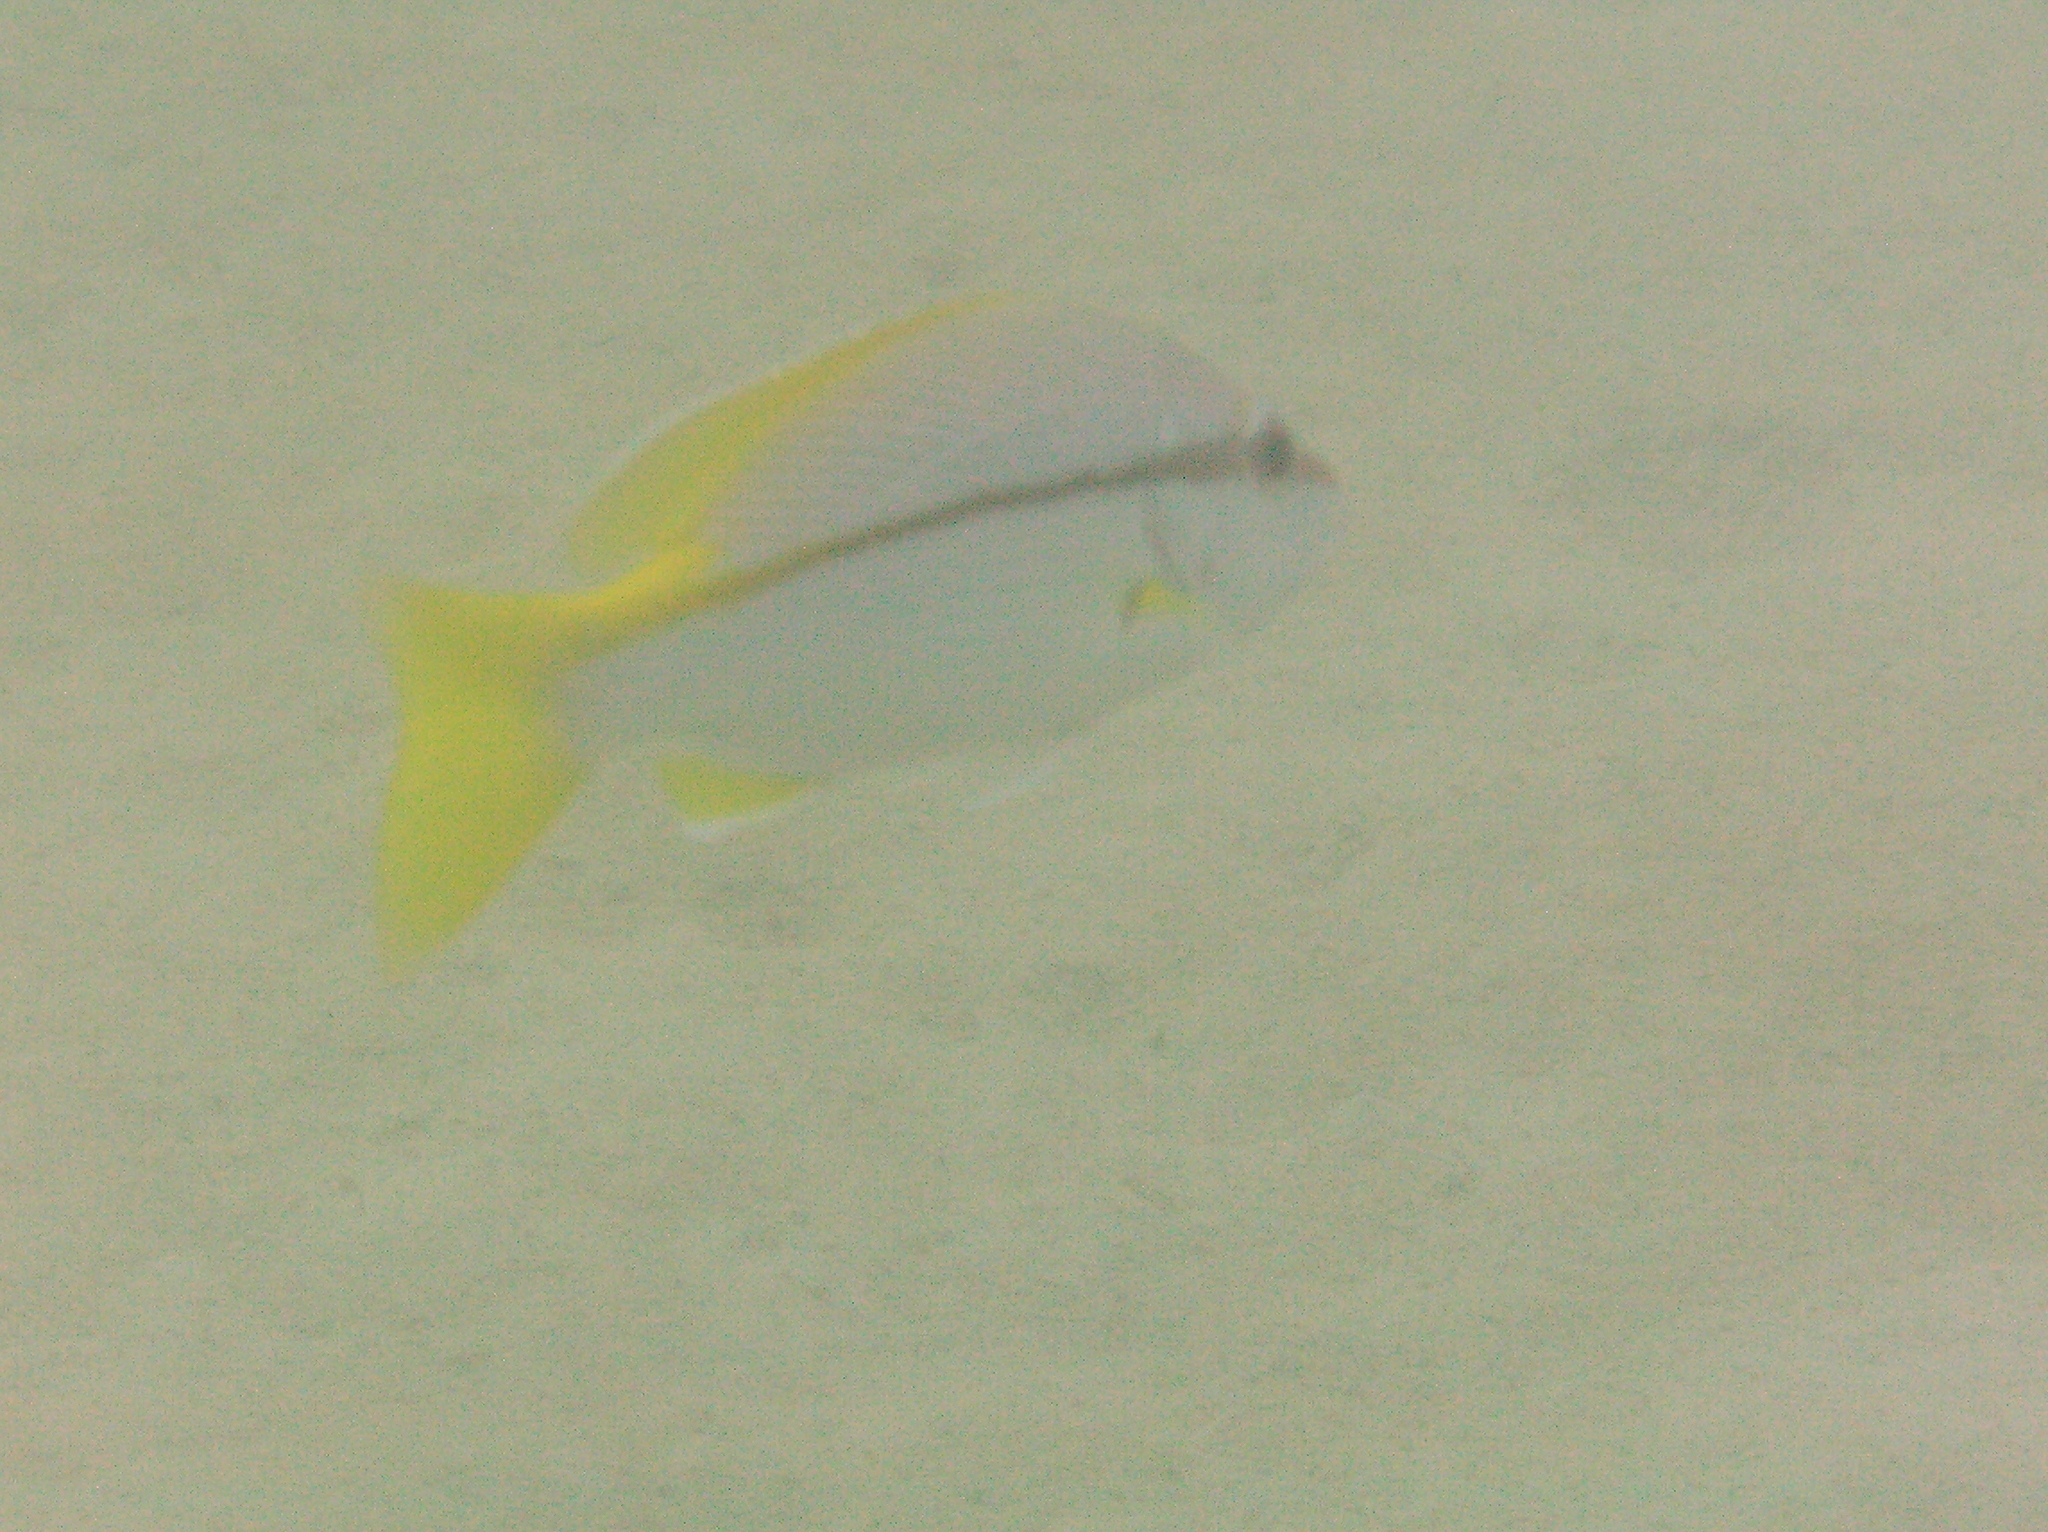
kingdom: Animalia
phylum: Chordata
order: Perciformes
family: Lutjanidae
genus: Lutjanus
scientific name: Lutjanus vitta
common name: Brownstripe red snapper
